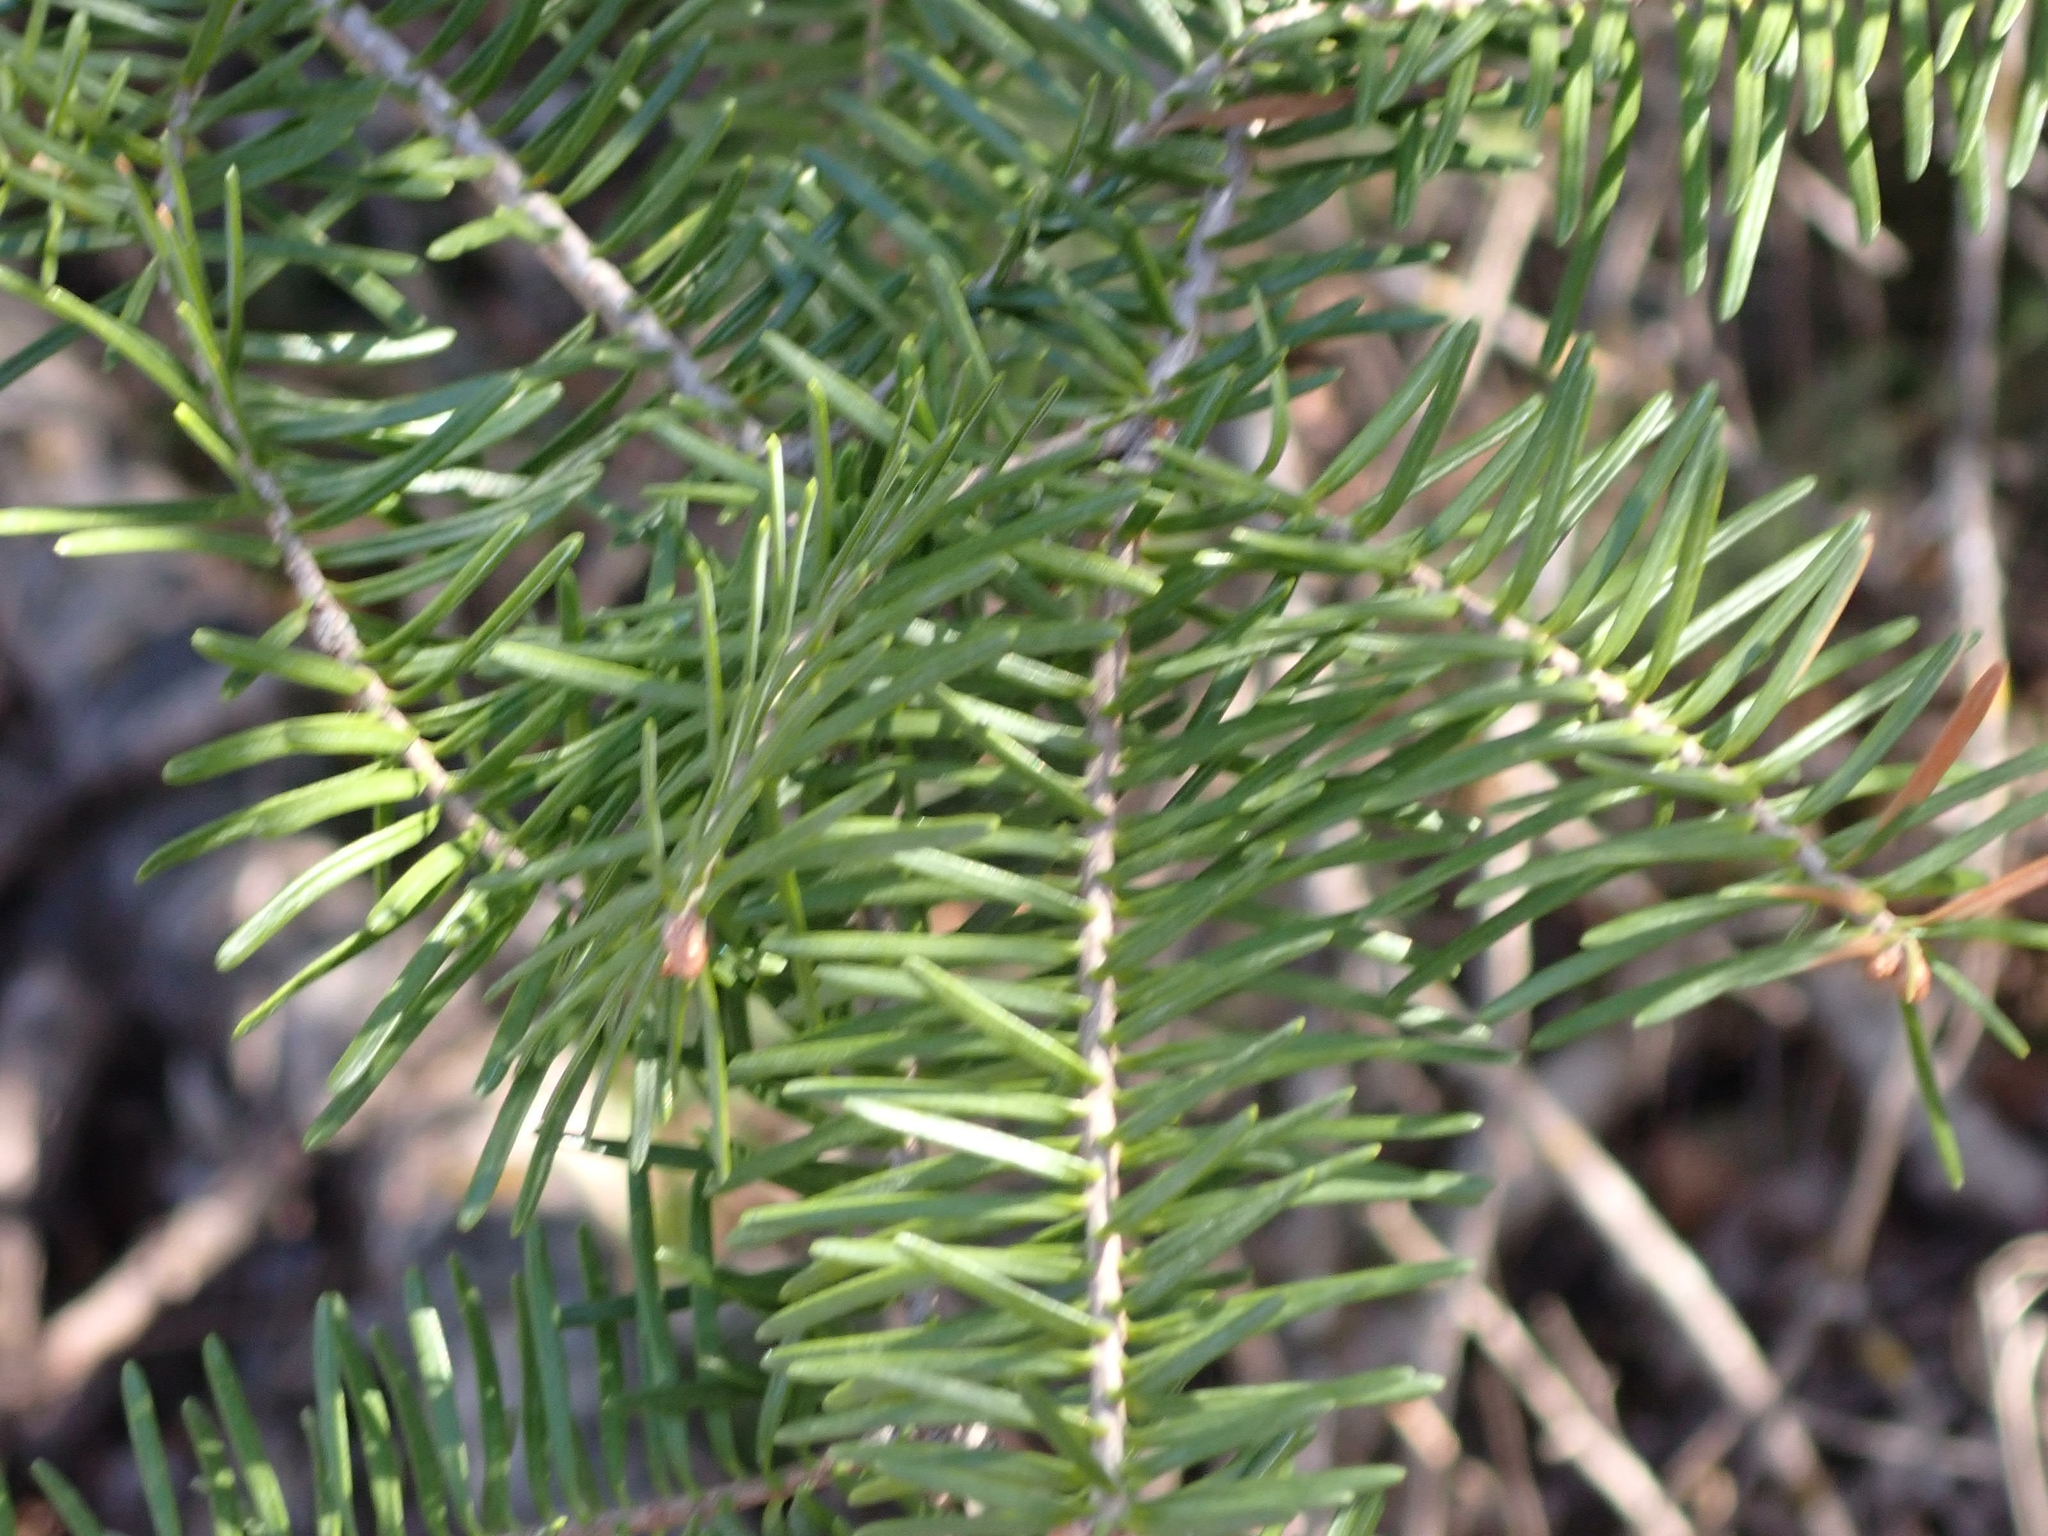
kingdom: Plantae
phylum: Tracheophyta
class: Pinopsida
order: Pinales
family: Pinaceae
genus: Abies
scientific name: Abies balsamea
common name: Balsam fir
